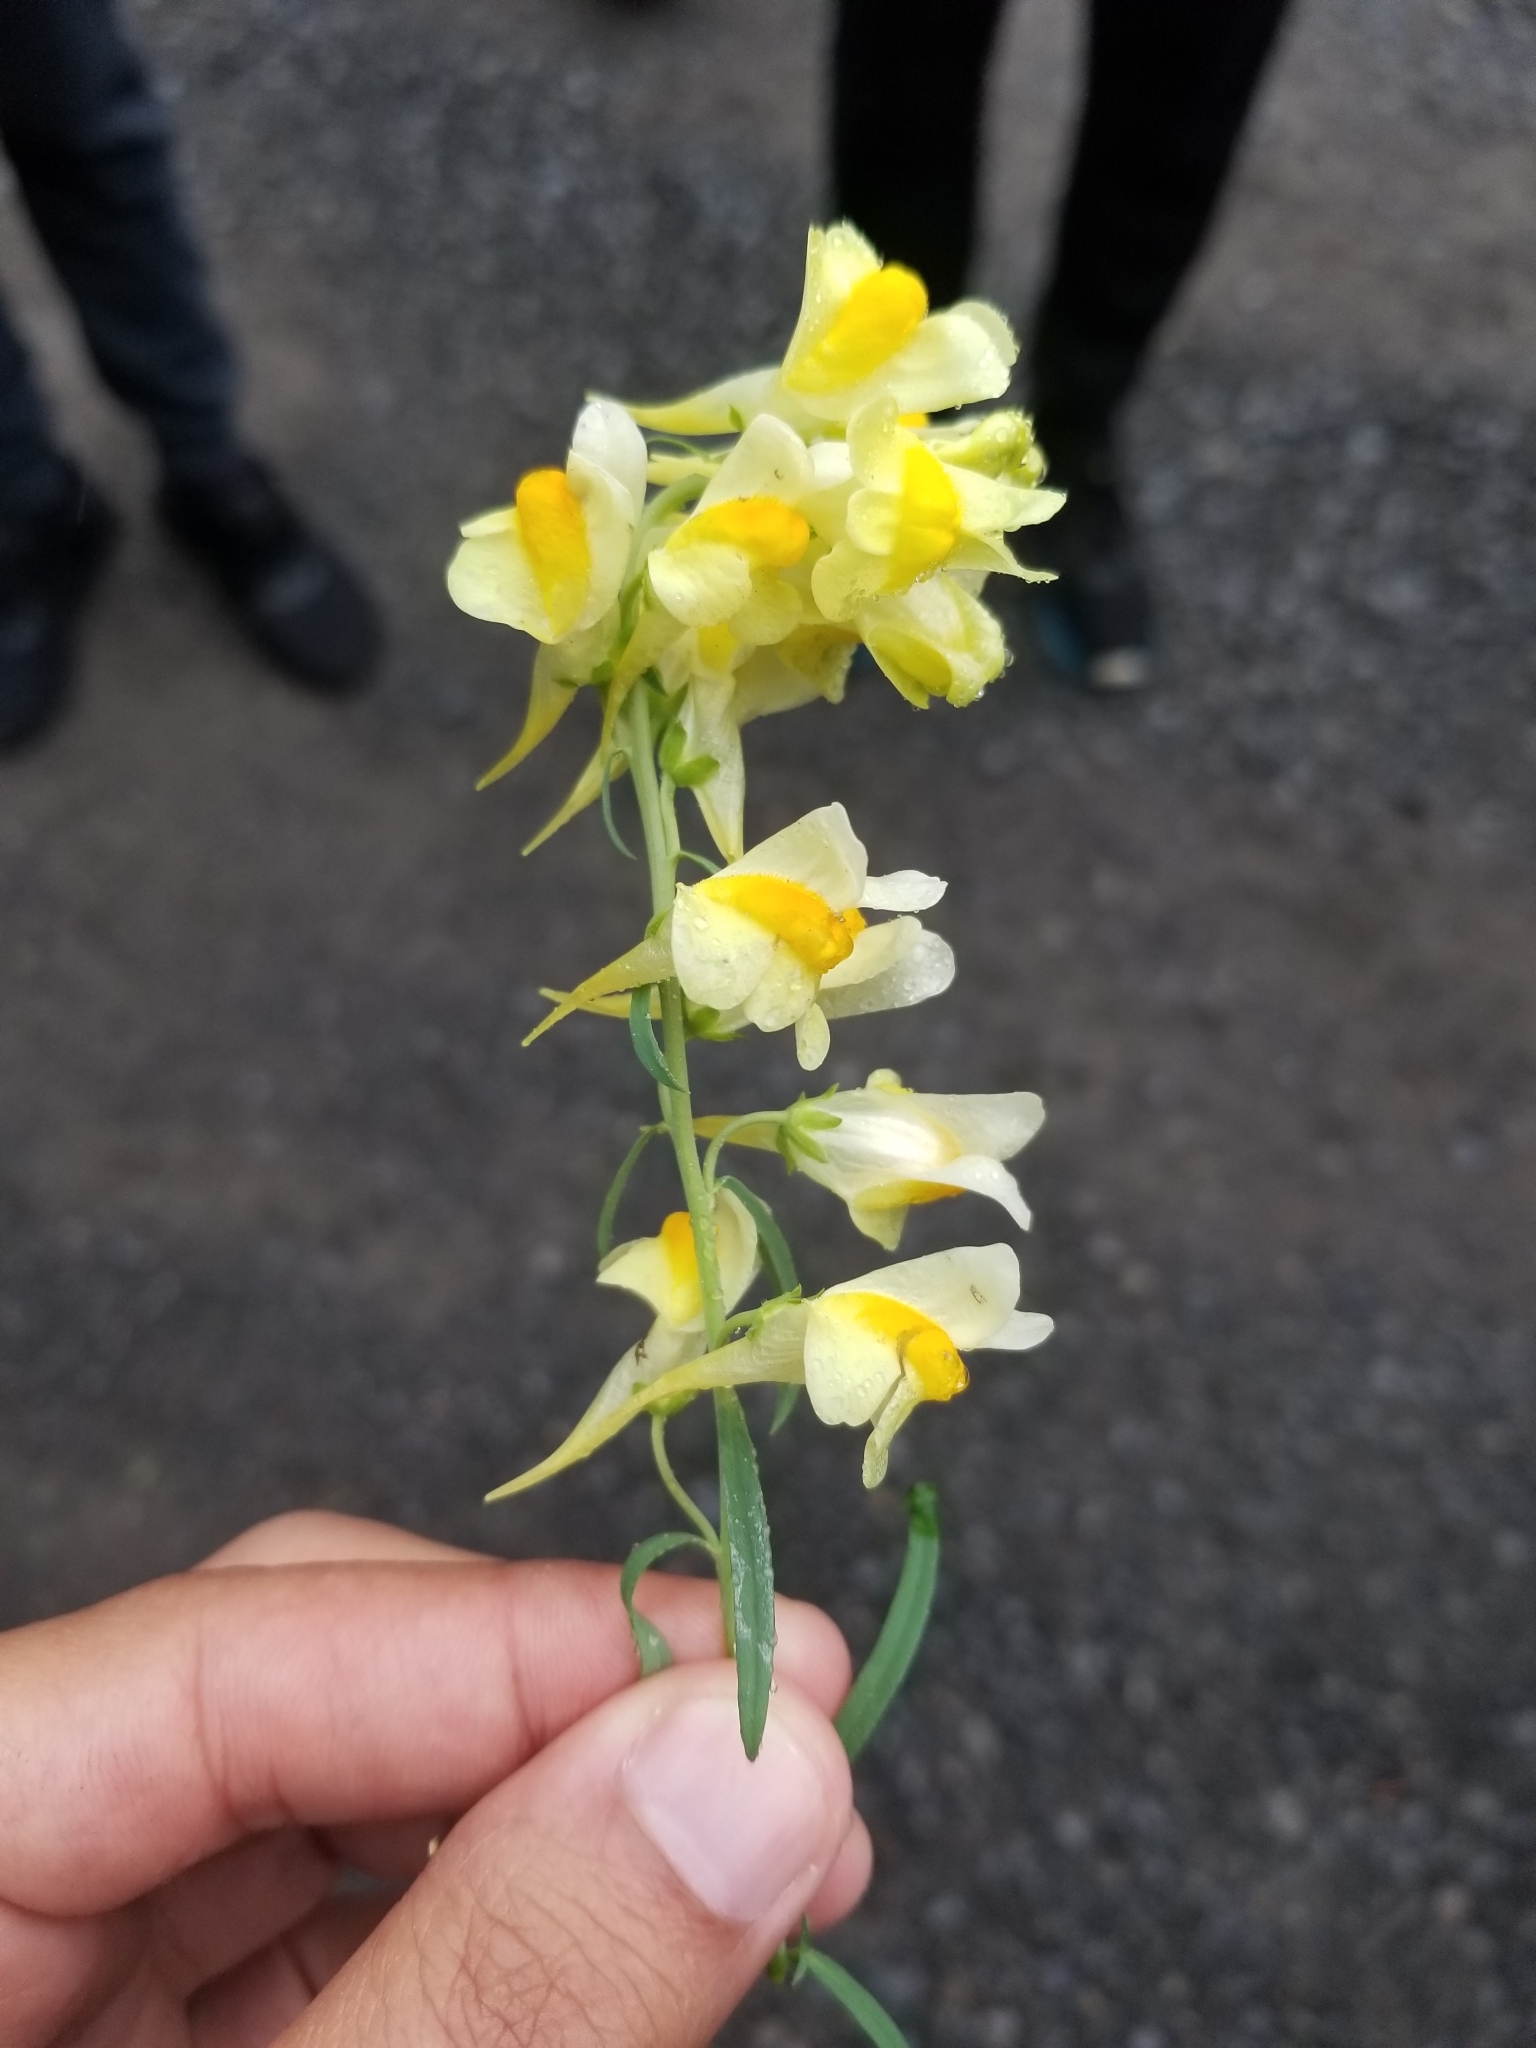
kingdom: Plantae
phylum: Tracheophyta
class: Magnoliopsida
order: Lamiales
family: Plantaginaceae
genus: Linaria
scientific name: Linaria vulgaris
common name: Butter and eggs
